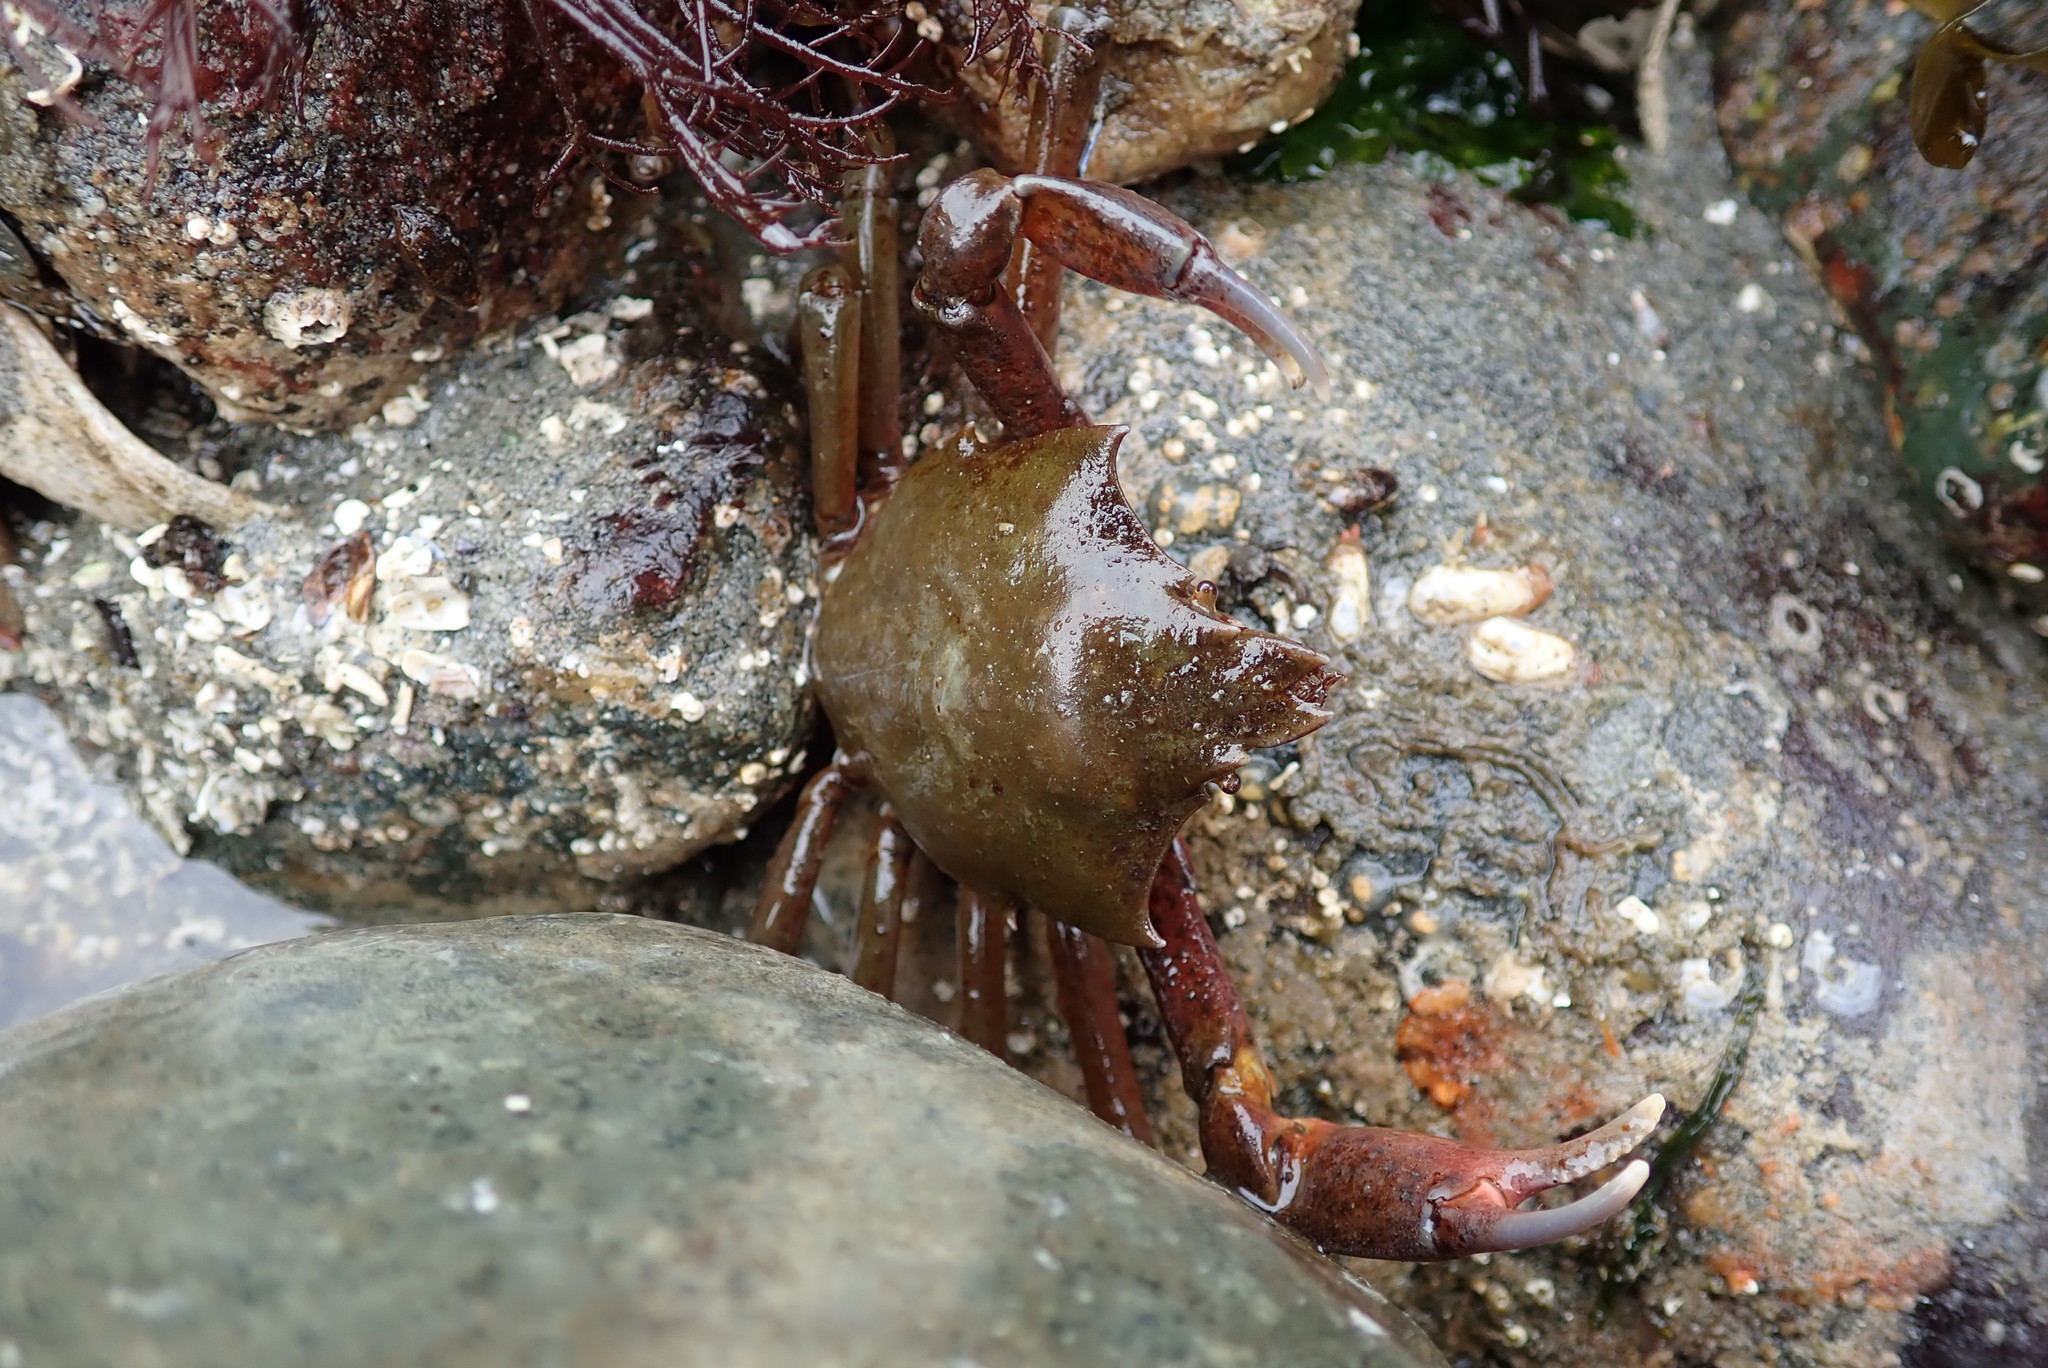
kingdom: Animalia
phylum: Arthropoda
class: Malacostraca
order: Decapoda
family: Epialtidae
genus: Pugettia
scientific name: Pugettia producta
